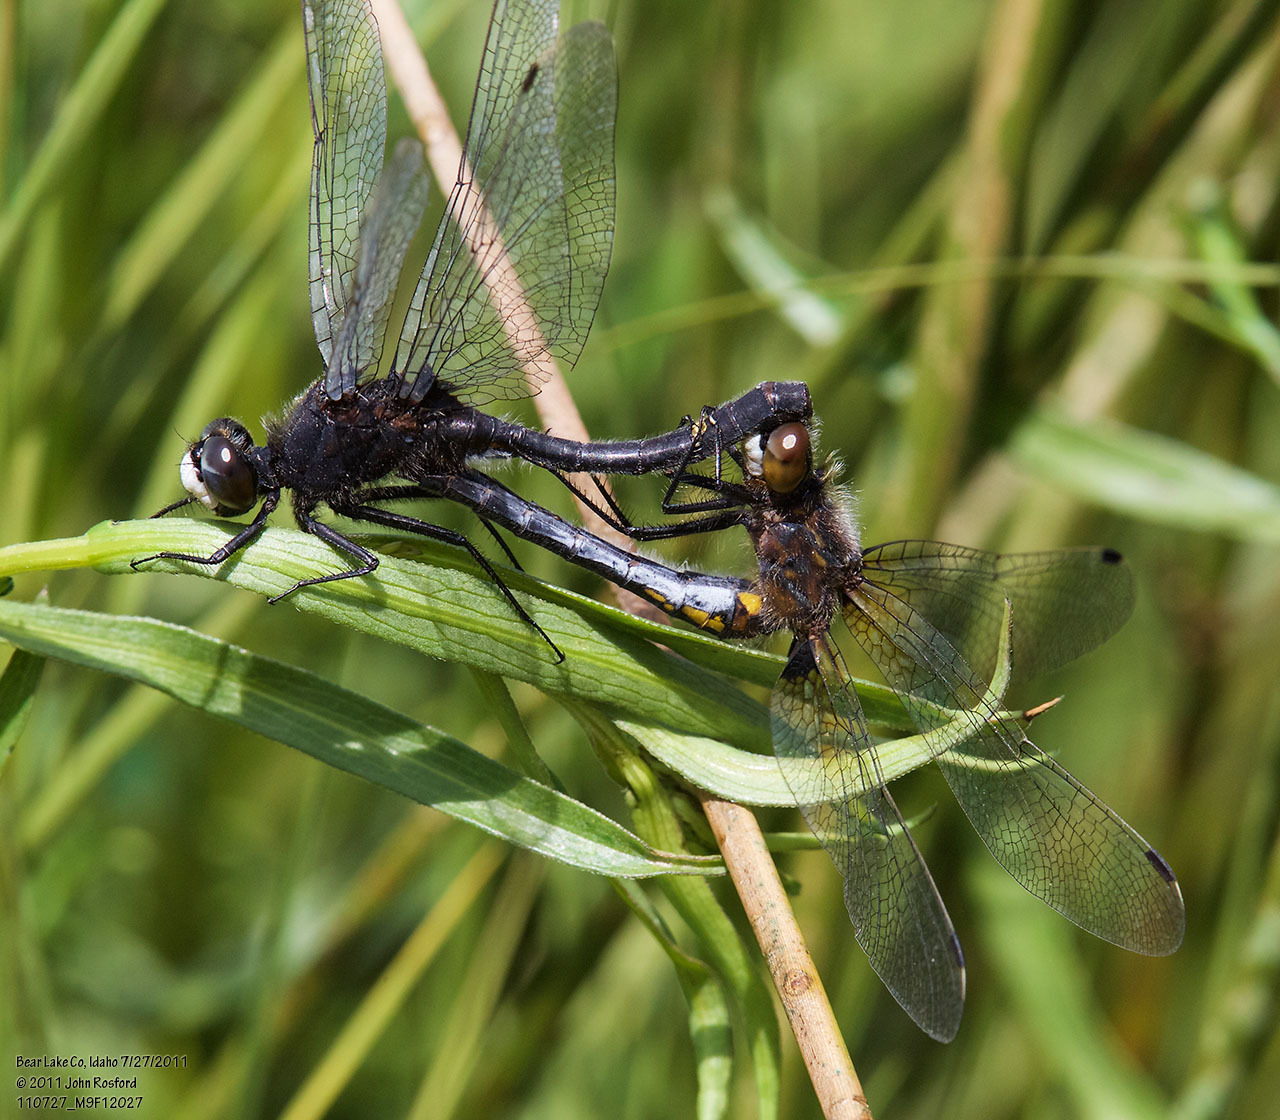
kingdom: Animalia
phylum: Arthropoda
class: Insecta
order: Odonata
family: Libellulidae
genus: Leucorrhinia
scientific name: Leucorrhinia intacta
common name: Dot-tailed whiteface
